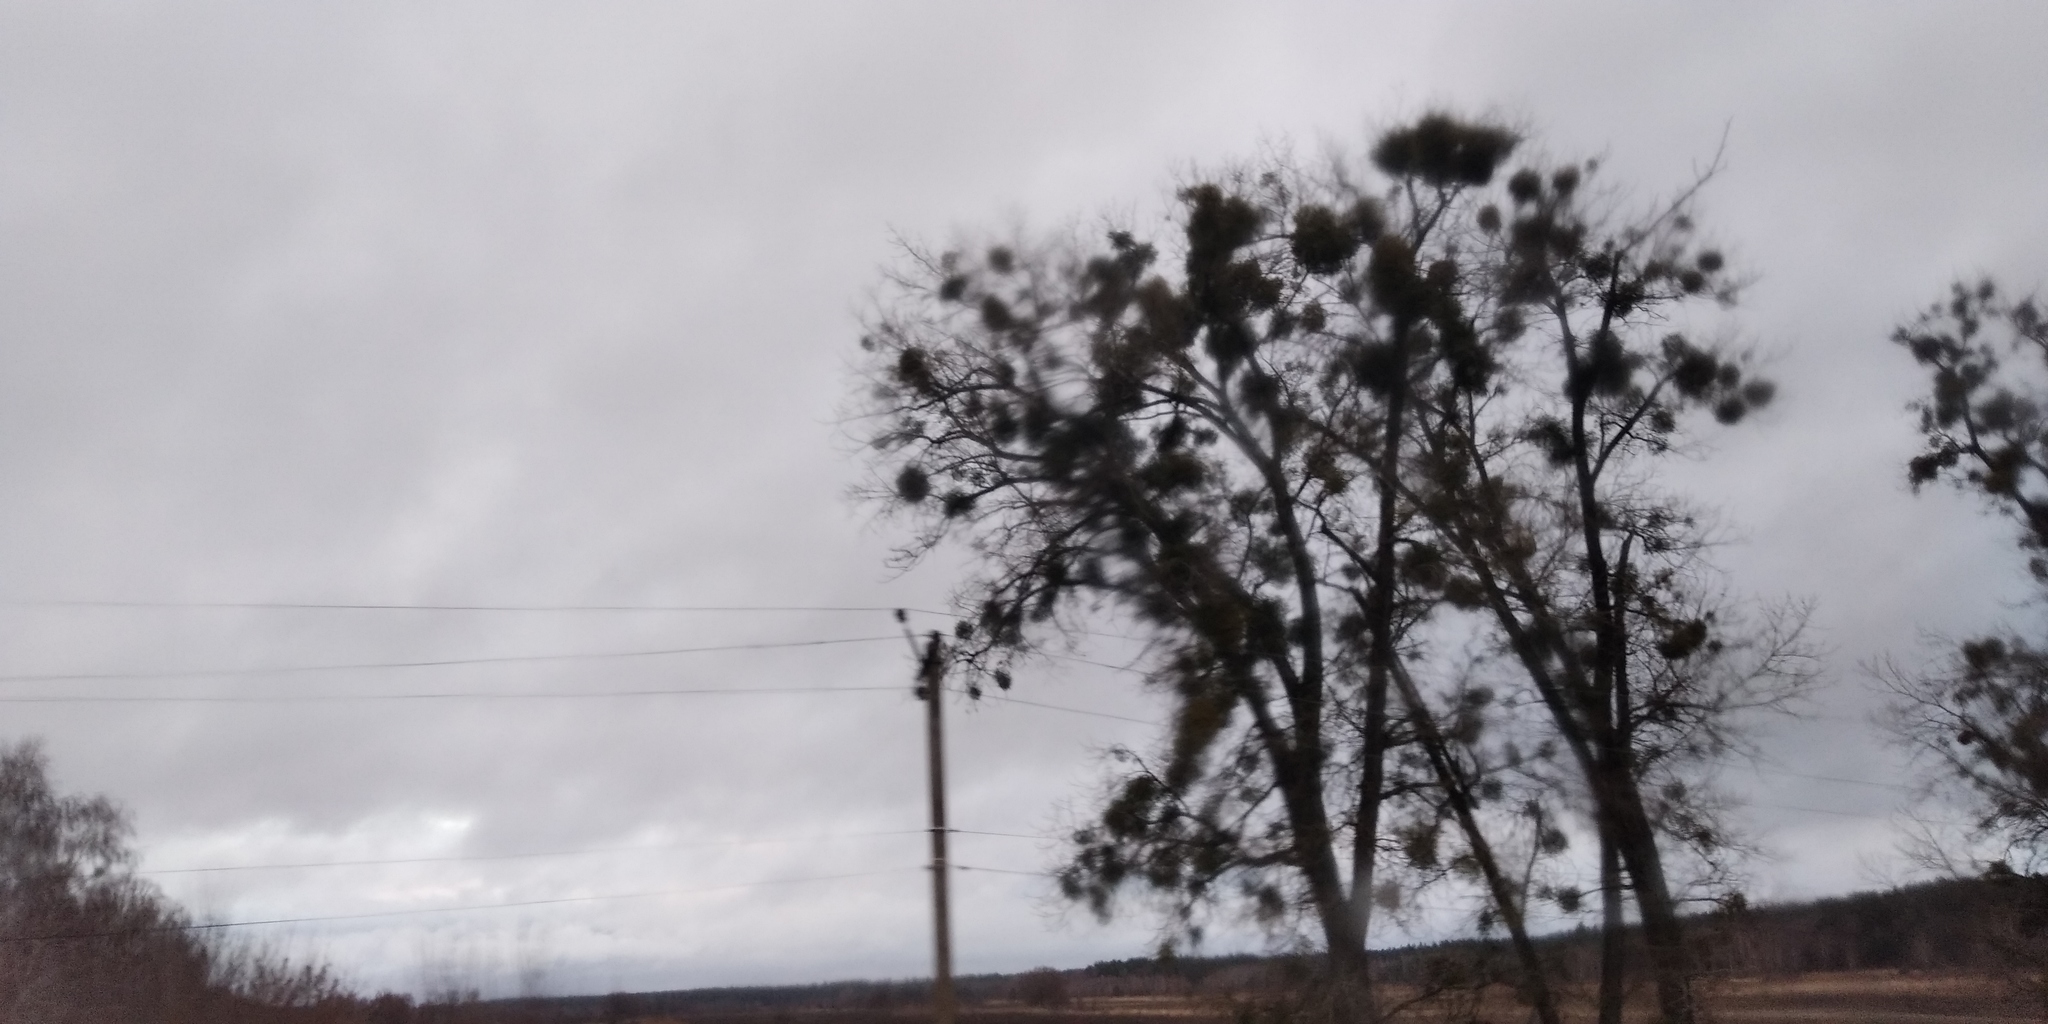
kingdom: Plantae
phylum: Tracheophyta
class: Magnoliopsida
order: Santalales
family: Viscaceae
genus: Viscum
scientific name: Viscum album
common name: Mistletoe
